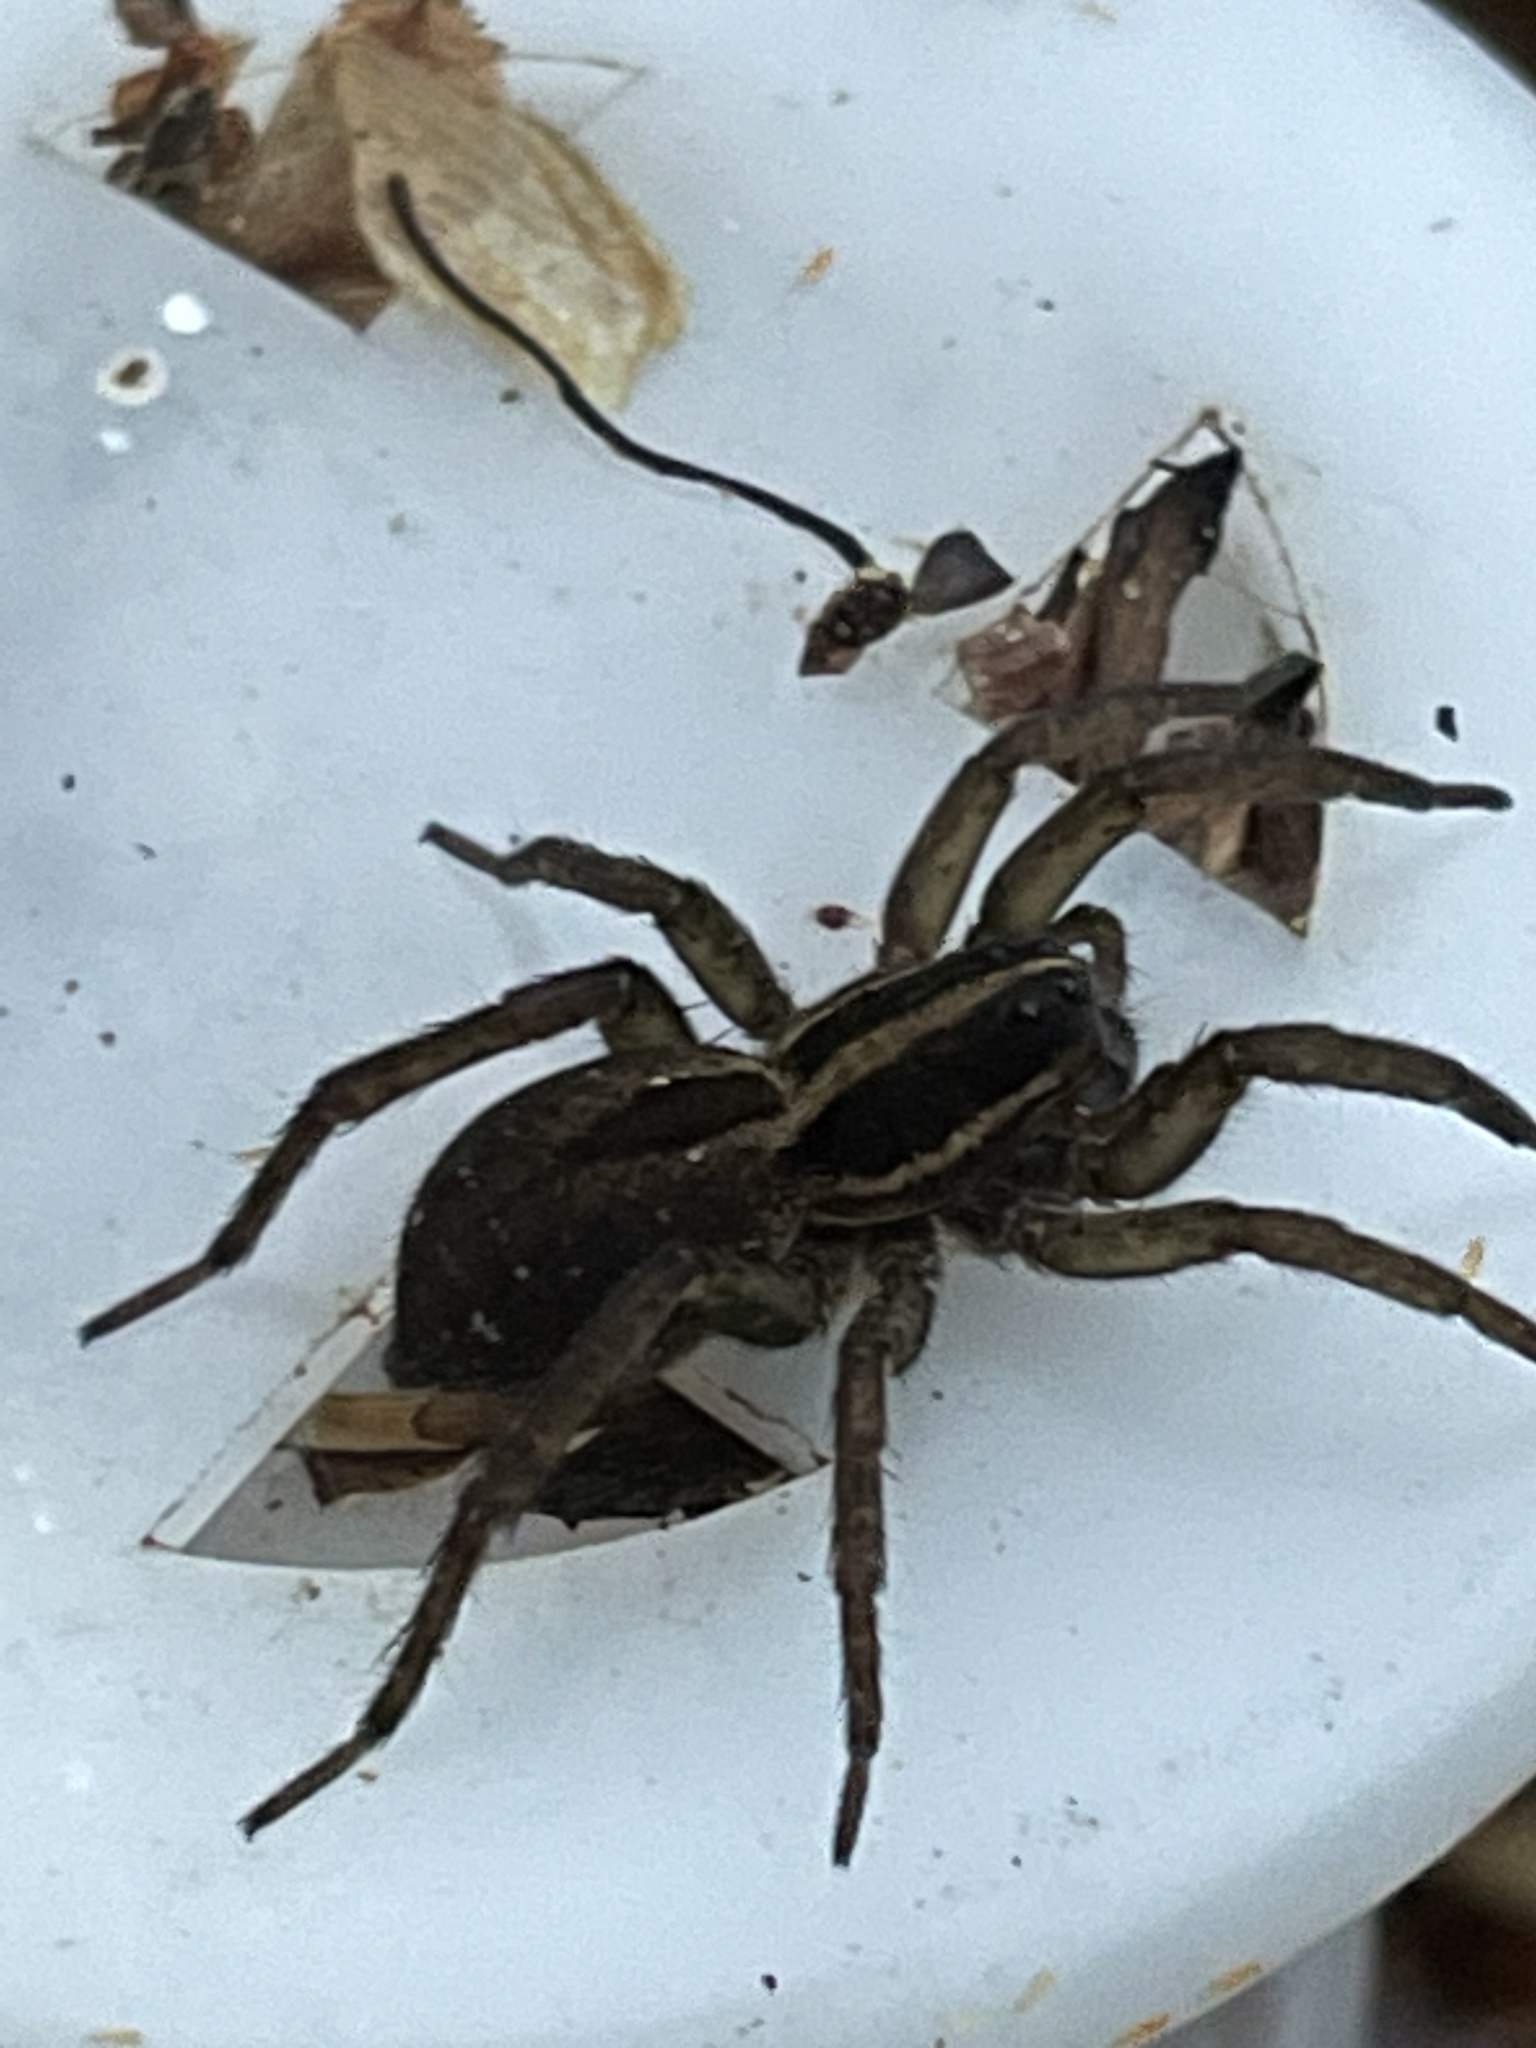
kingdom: Animalia
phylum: Arthropoda
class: Arachnida
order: Araneae
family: Lycosidae
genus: Tigrosa
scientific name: Tigrosa annexa
